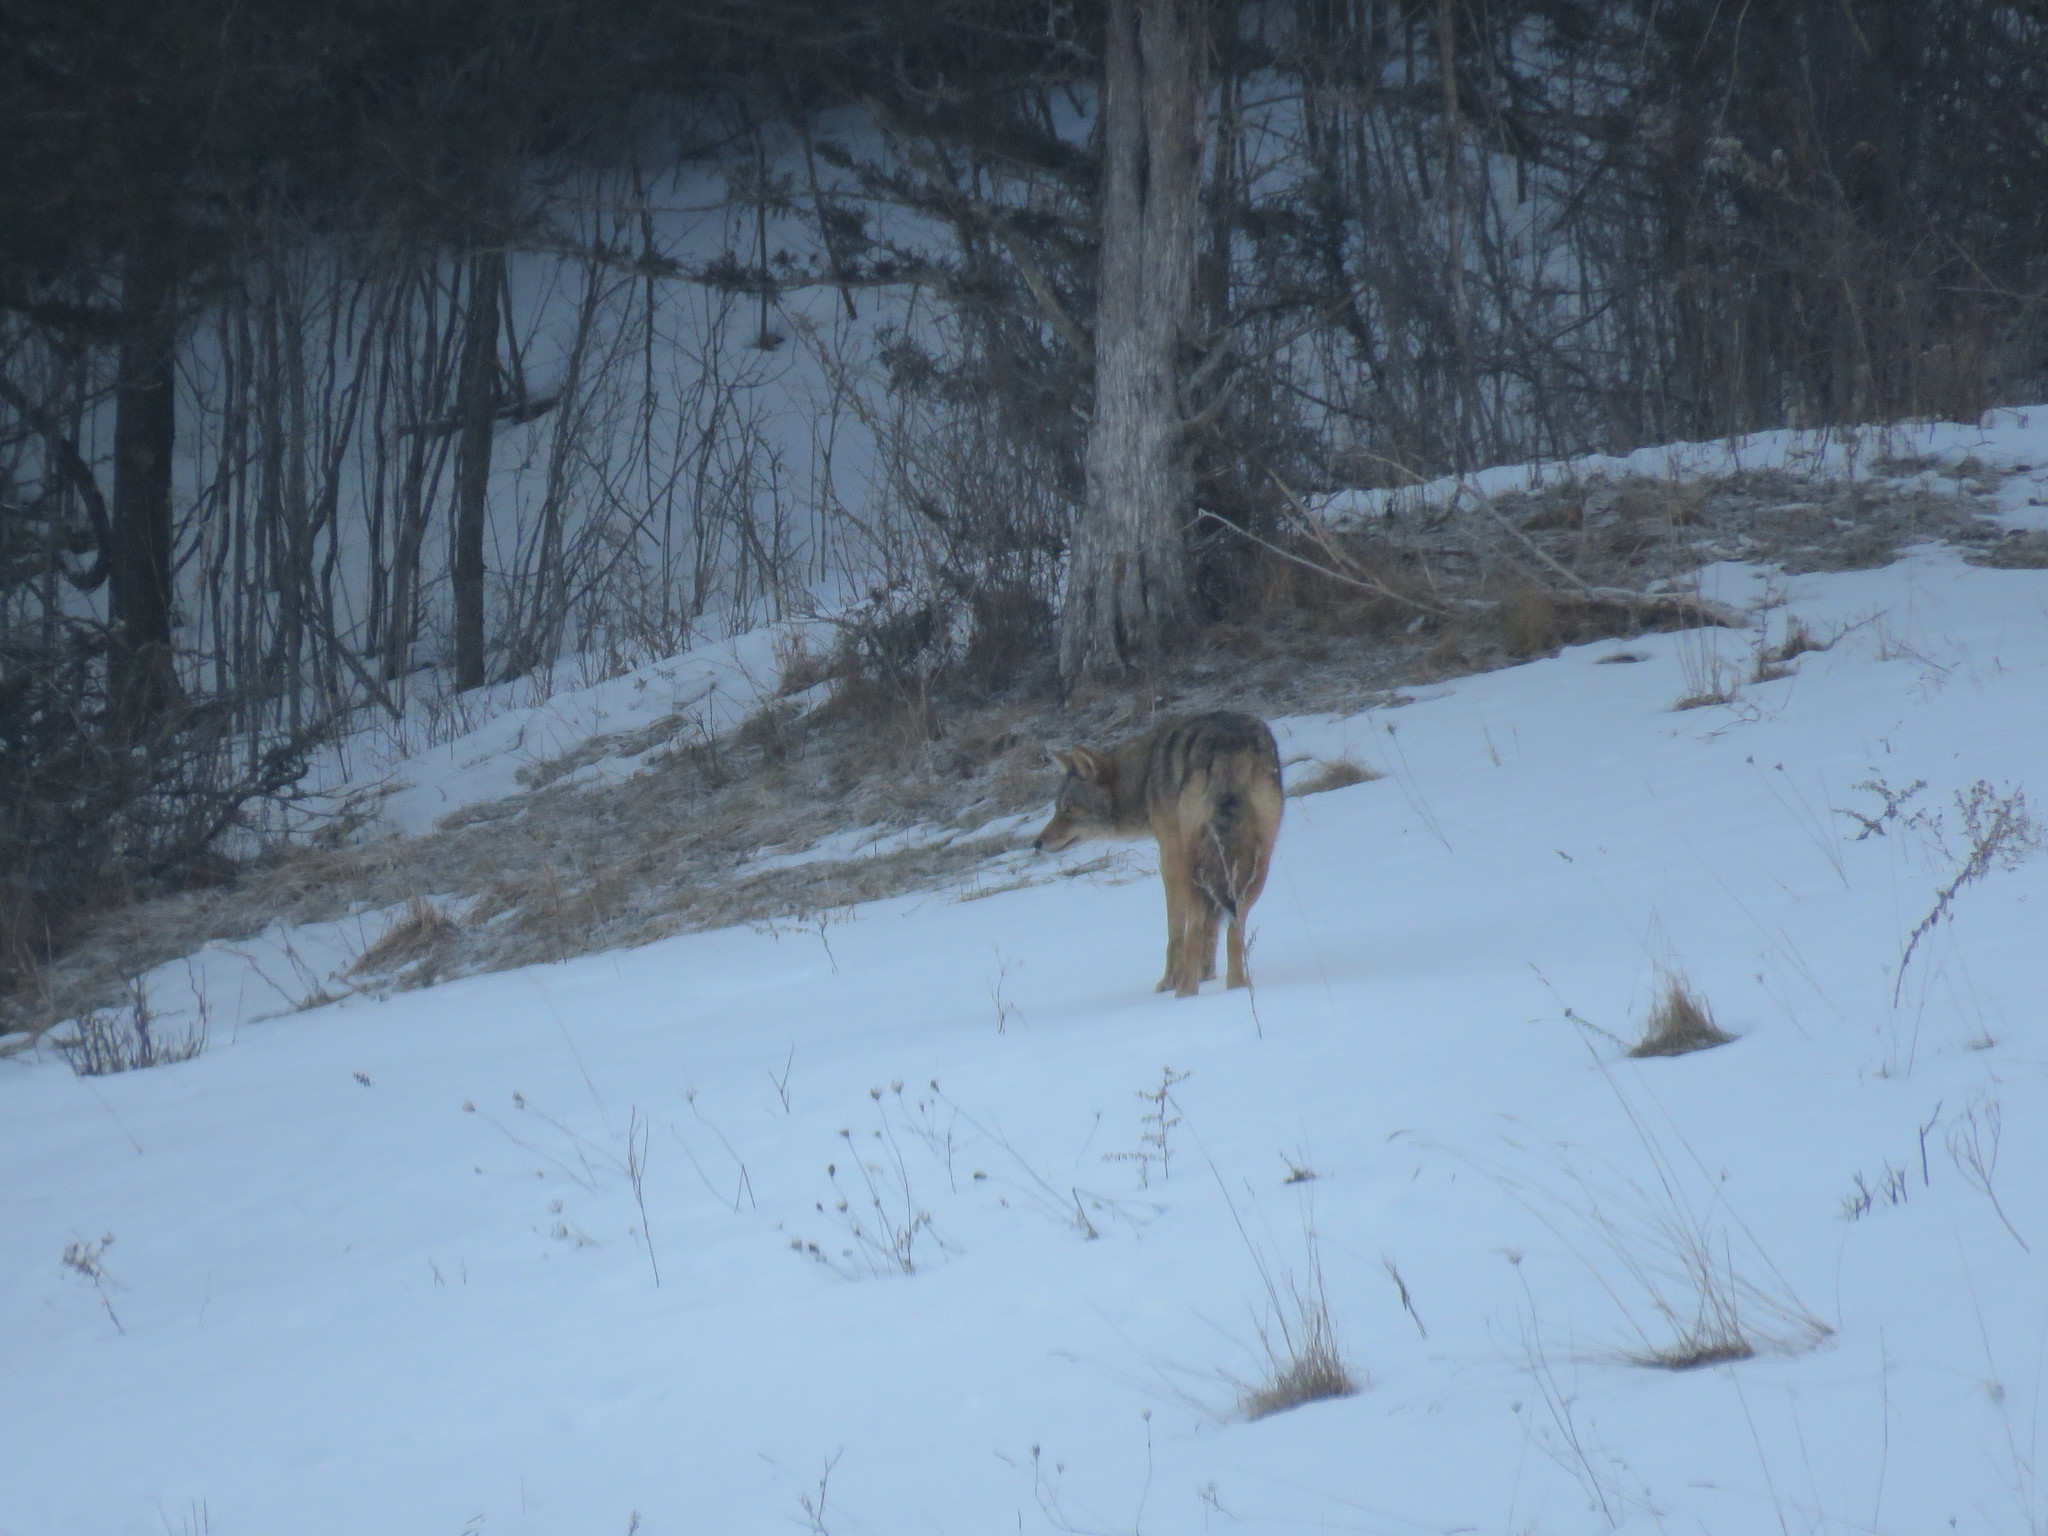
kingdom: Animalia
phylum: Chordata
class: Mammalia
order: Carnivora
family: Canidae
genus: Canis
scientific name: Canis latrans
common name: Coyote
